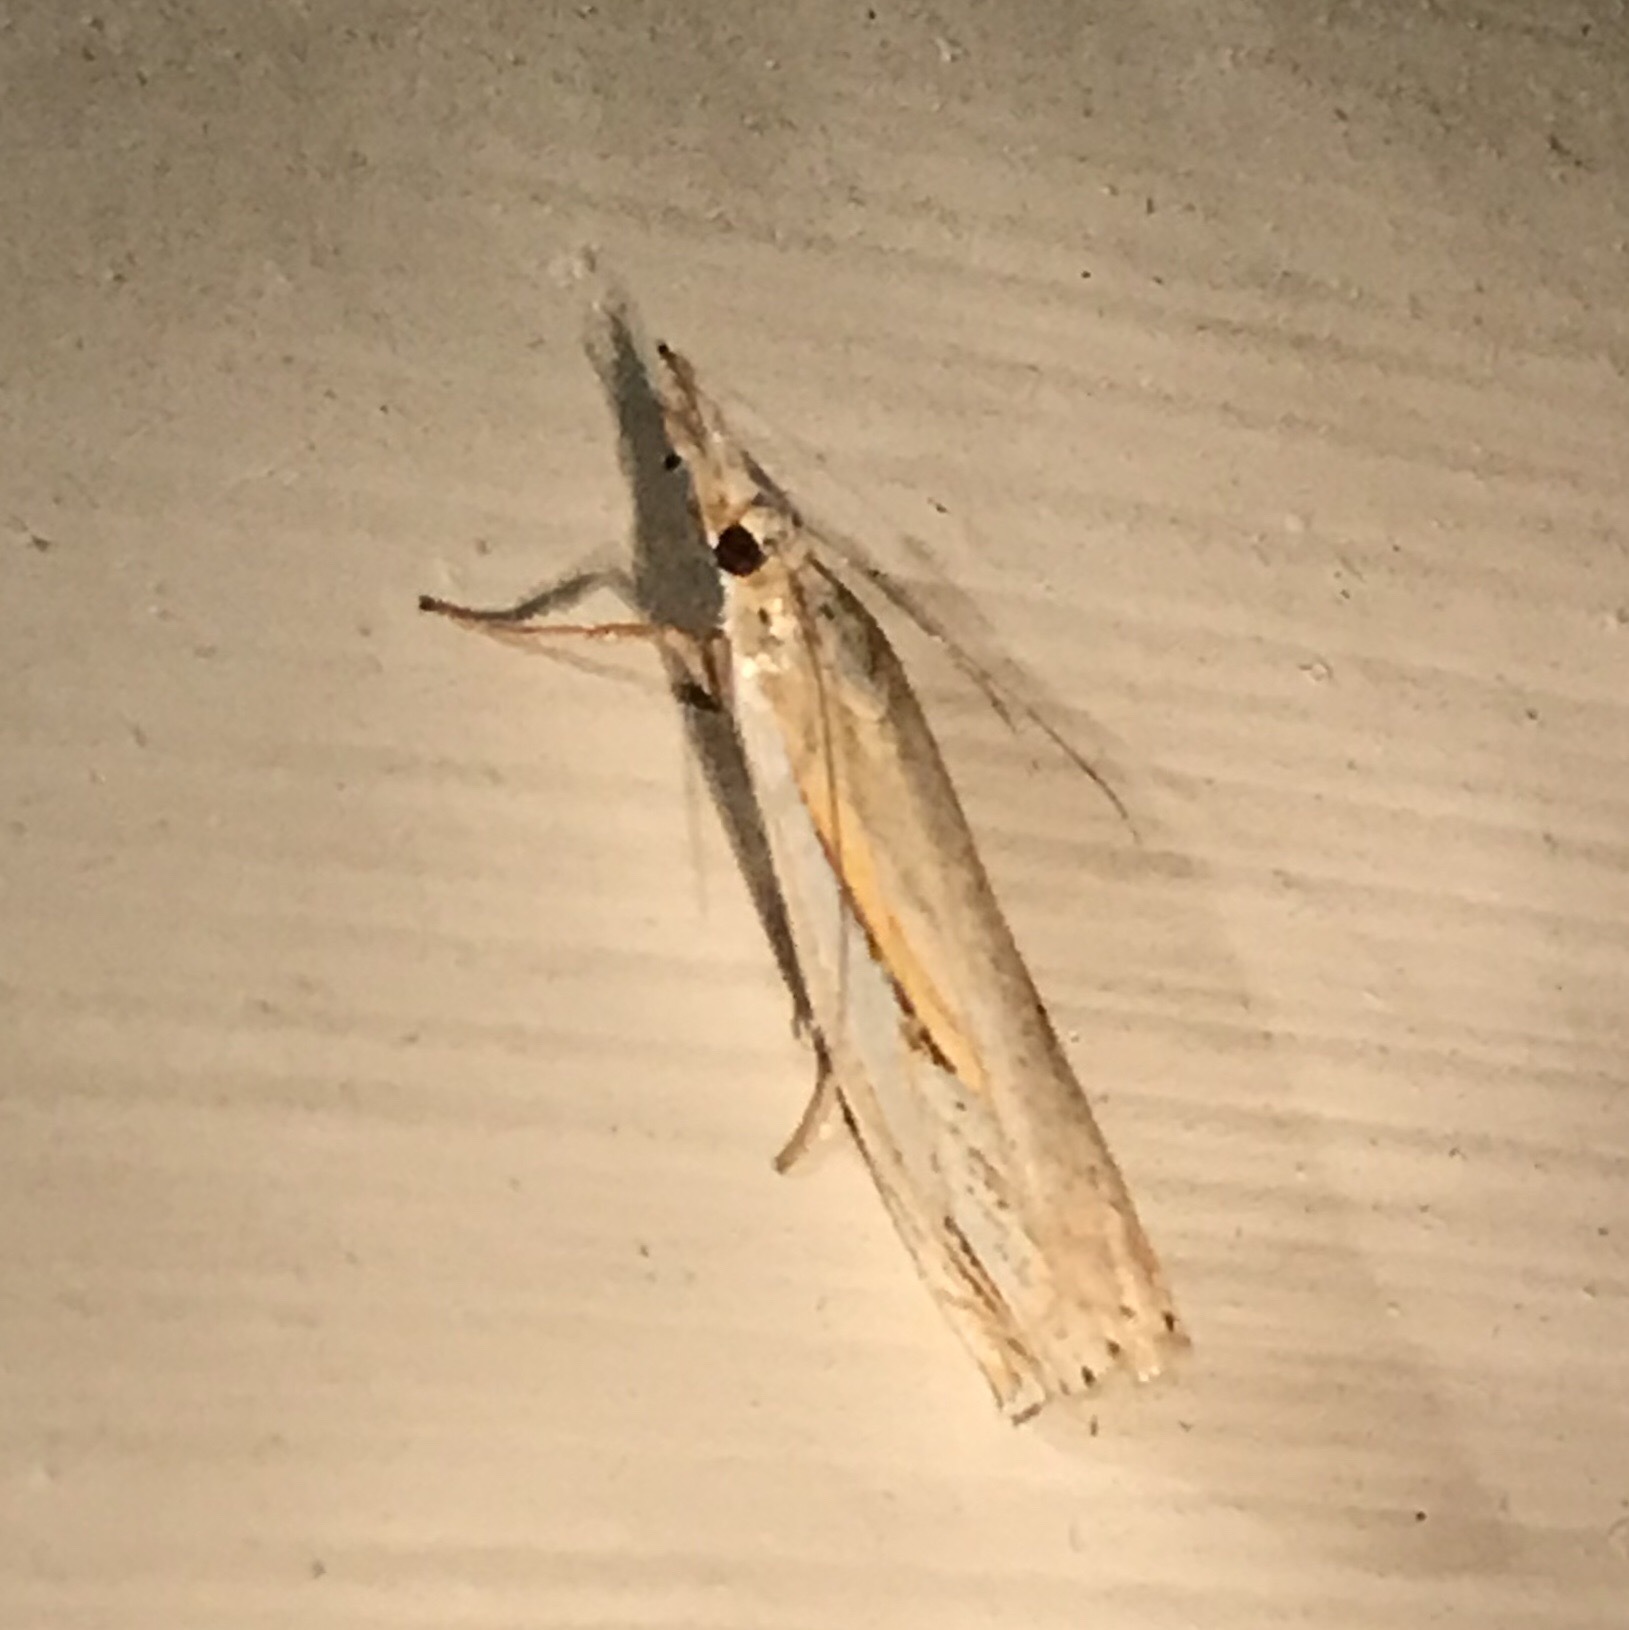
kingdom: Animalia
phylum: Arthropoda
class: Insecta
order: Lepidoptera
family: Crambidae
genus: Crambus
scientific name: Crambus agitatellus
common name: Double-banded grass-veneer
